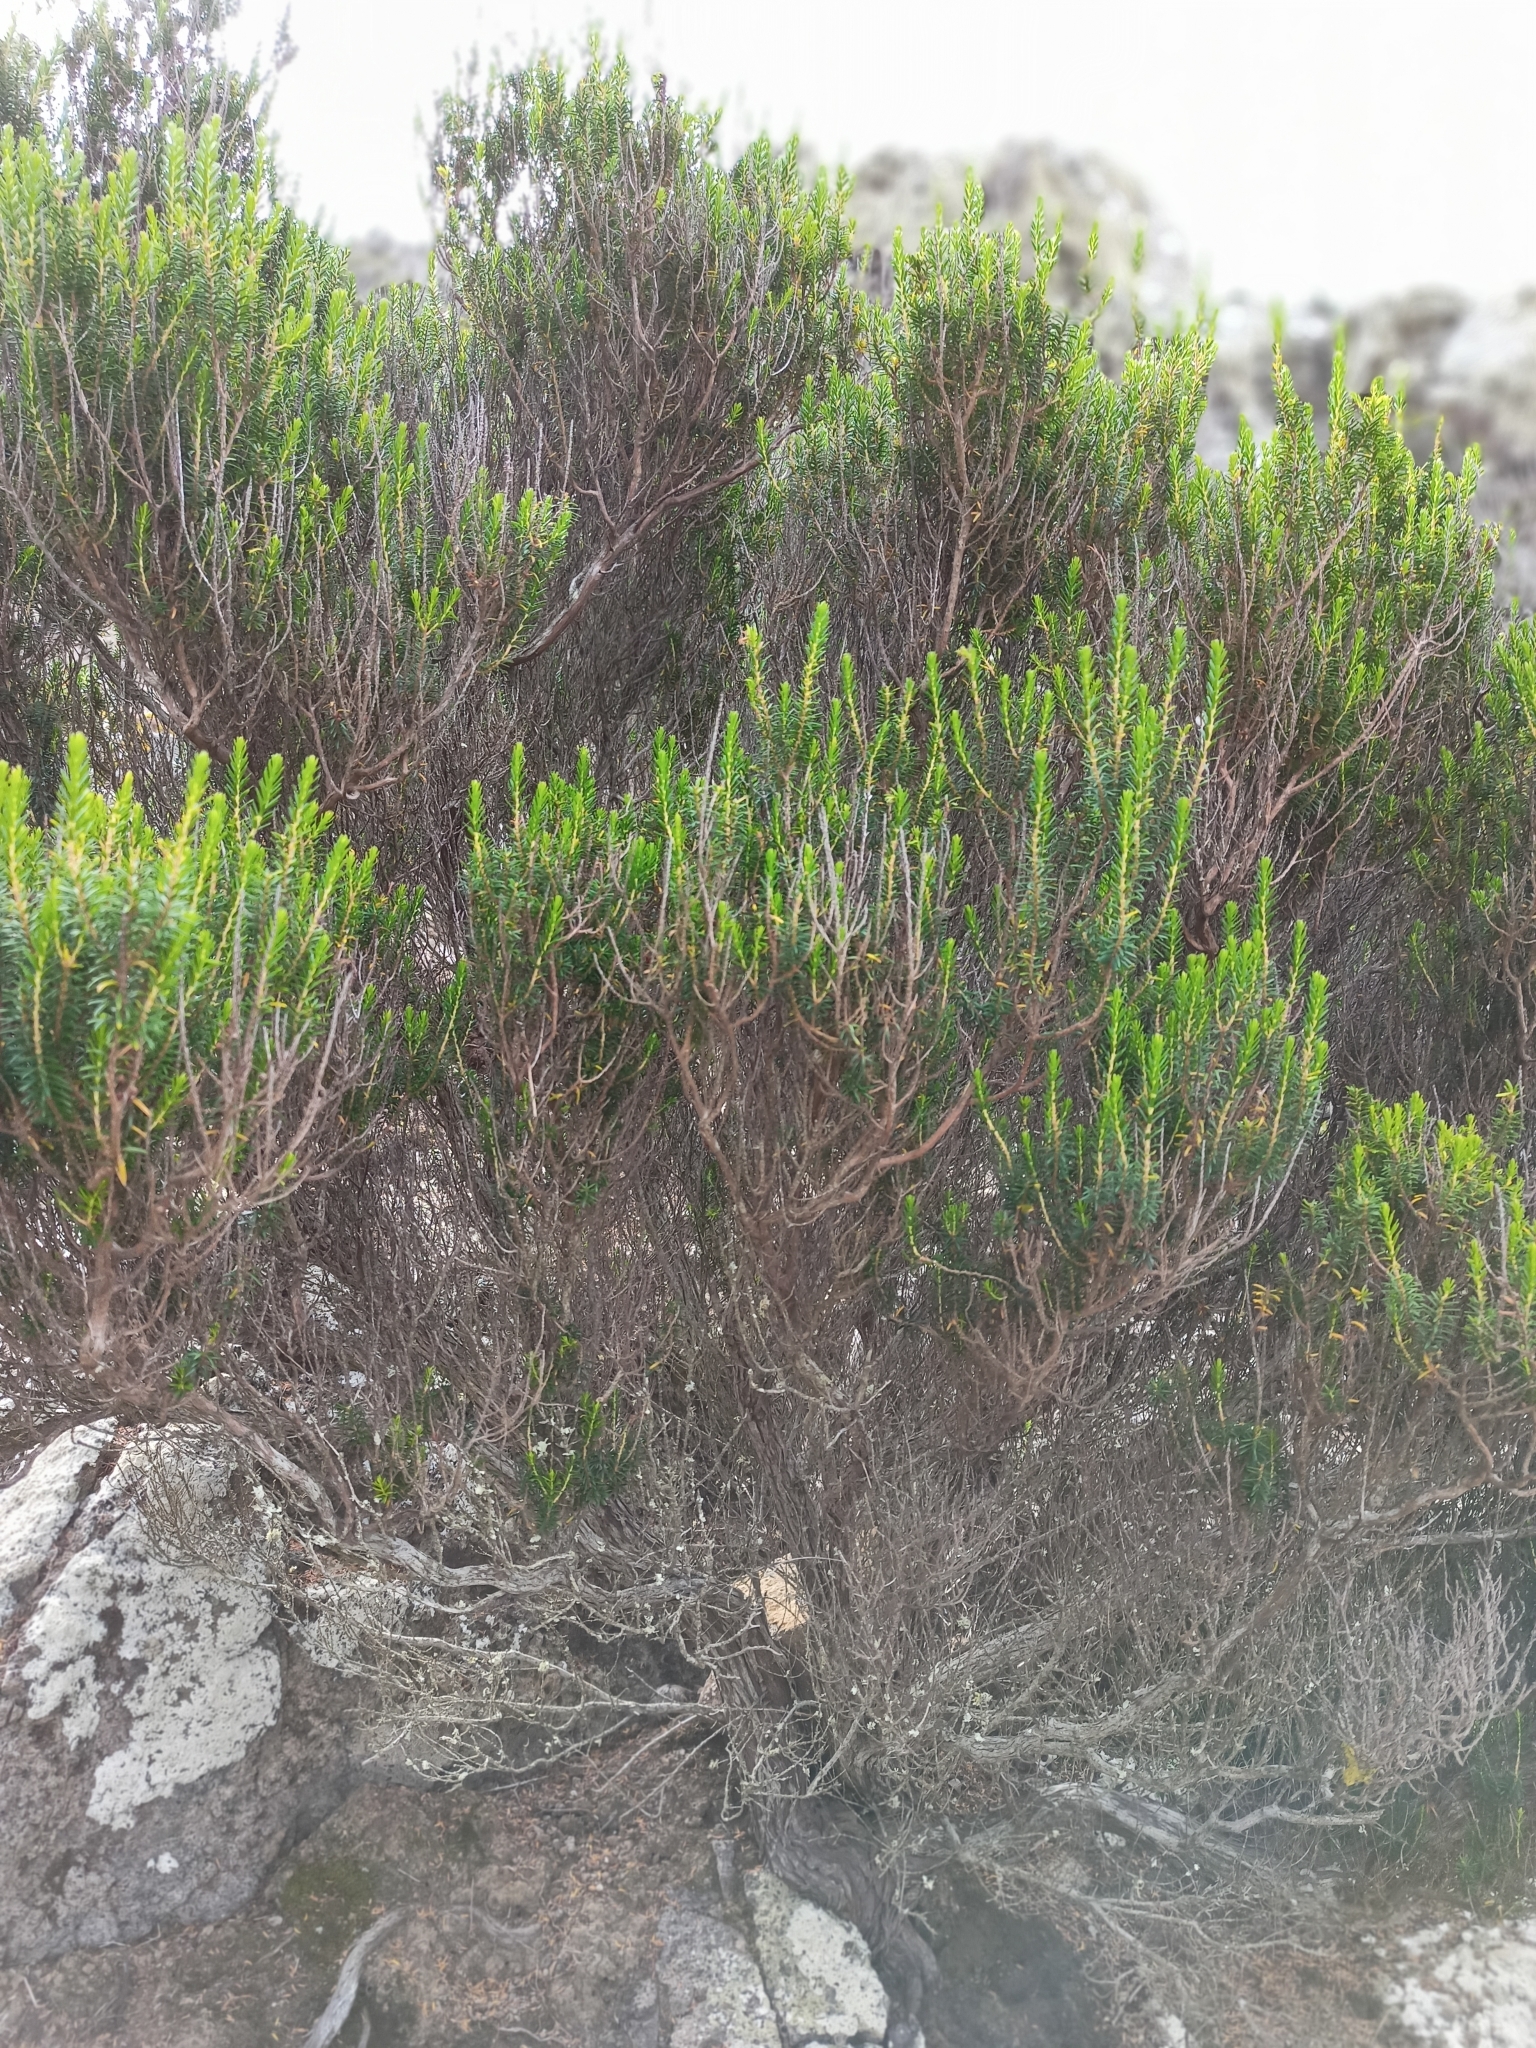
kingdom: Plantae
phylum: Tracheophyta
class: Magnoliopsida
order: Ericales
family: Ericaceae
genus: Erica
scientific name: Erica platycodon
